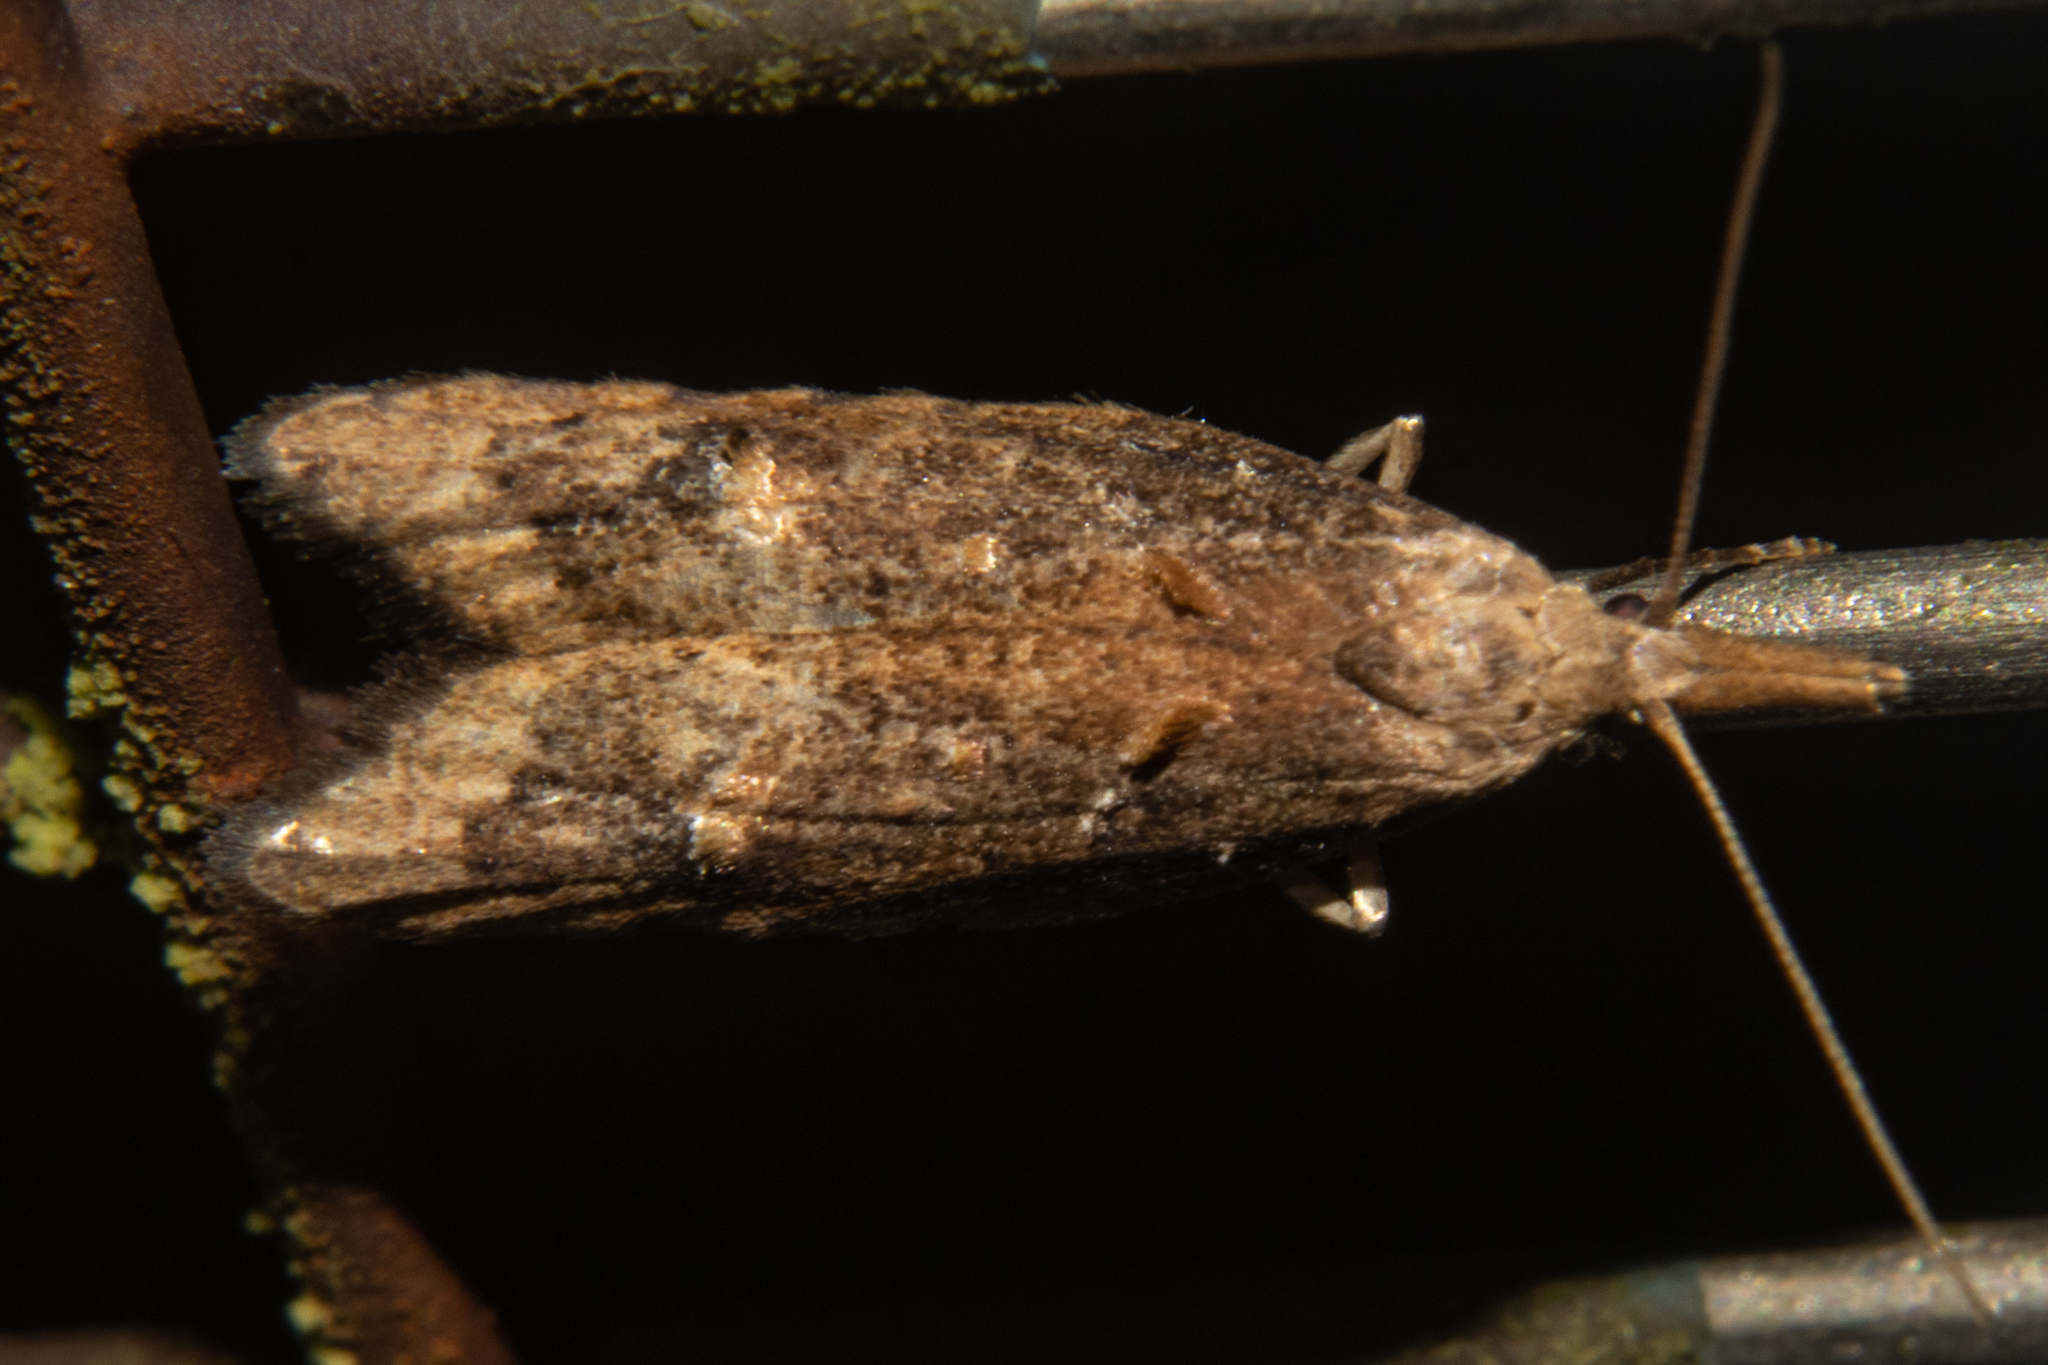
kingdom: Animalia
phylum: Arthropoda
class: Insecta
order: Lepidoptera
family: Carposinidae
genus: Carposina
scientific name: Carposina rubophaga
